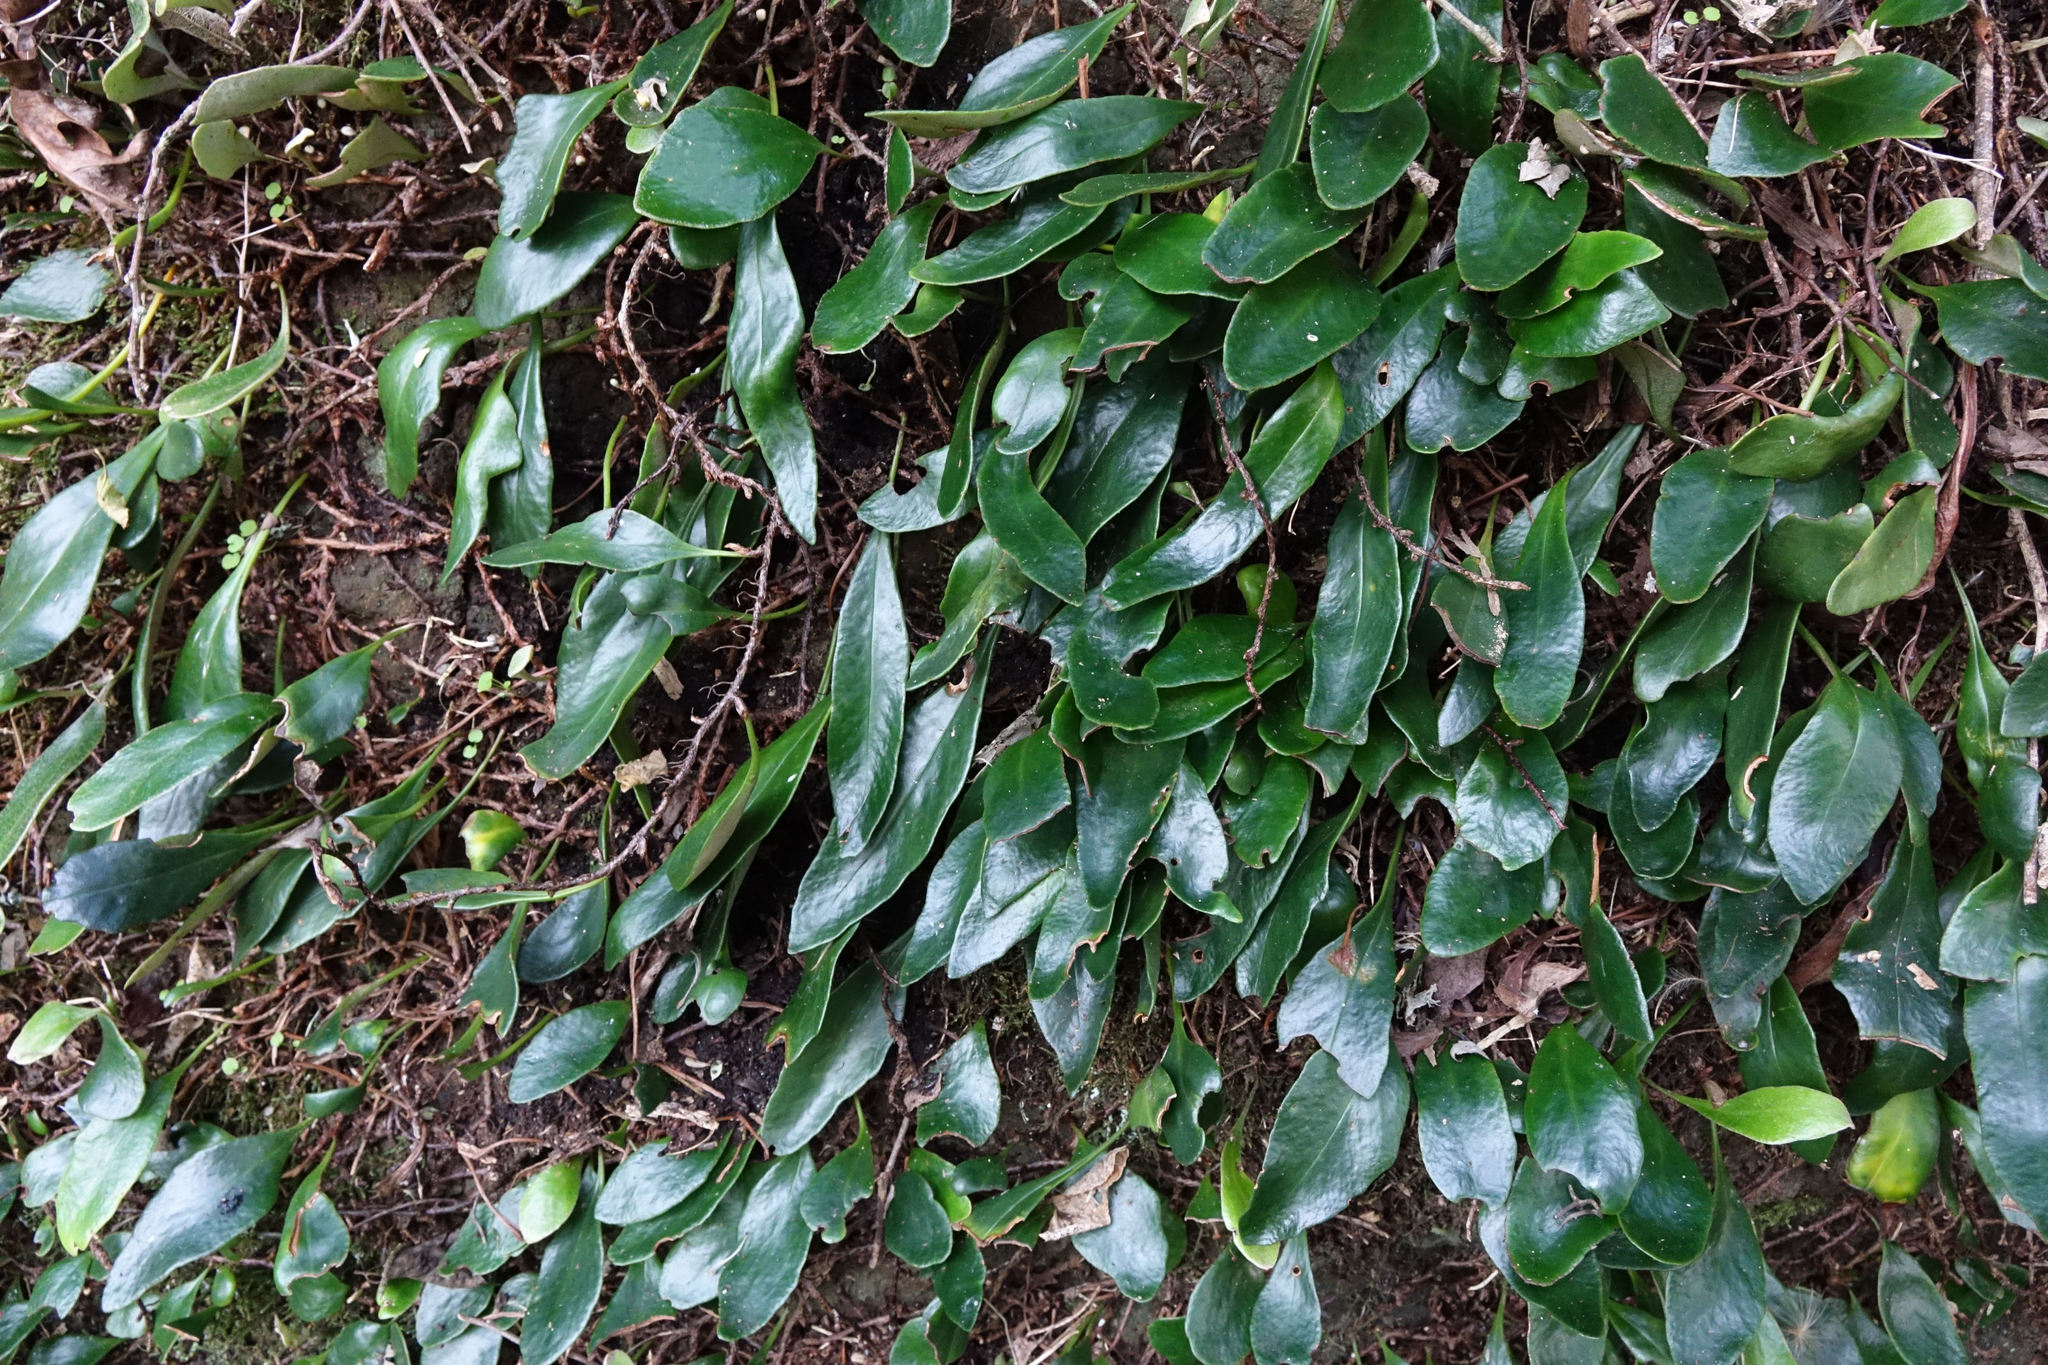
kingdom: Plantae
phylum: Tracheophyta
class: Polypodiopsida
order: Polypodiales
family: Polypodiaceae
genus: Pyrrosia
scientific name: Pyrrosia eleagnifolia
